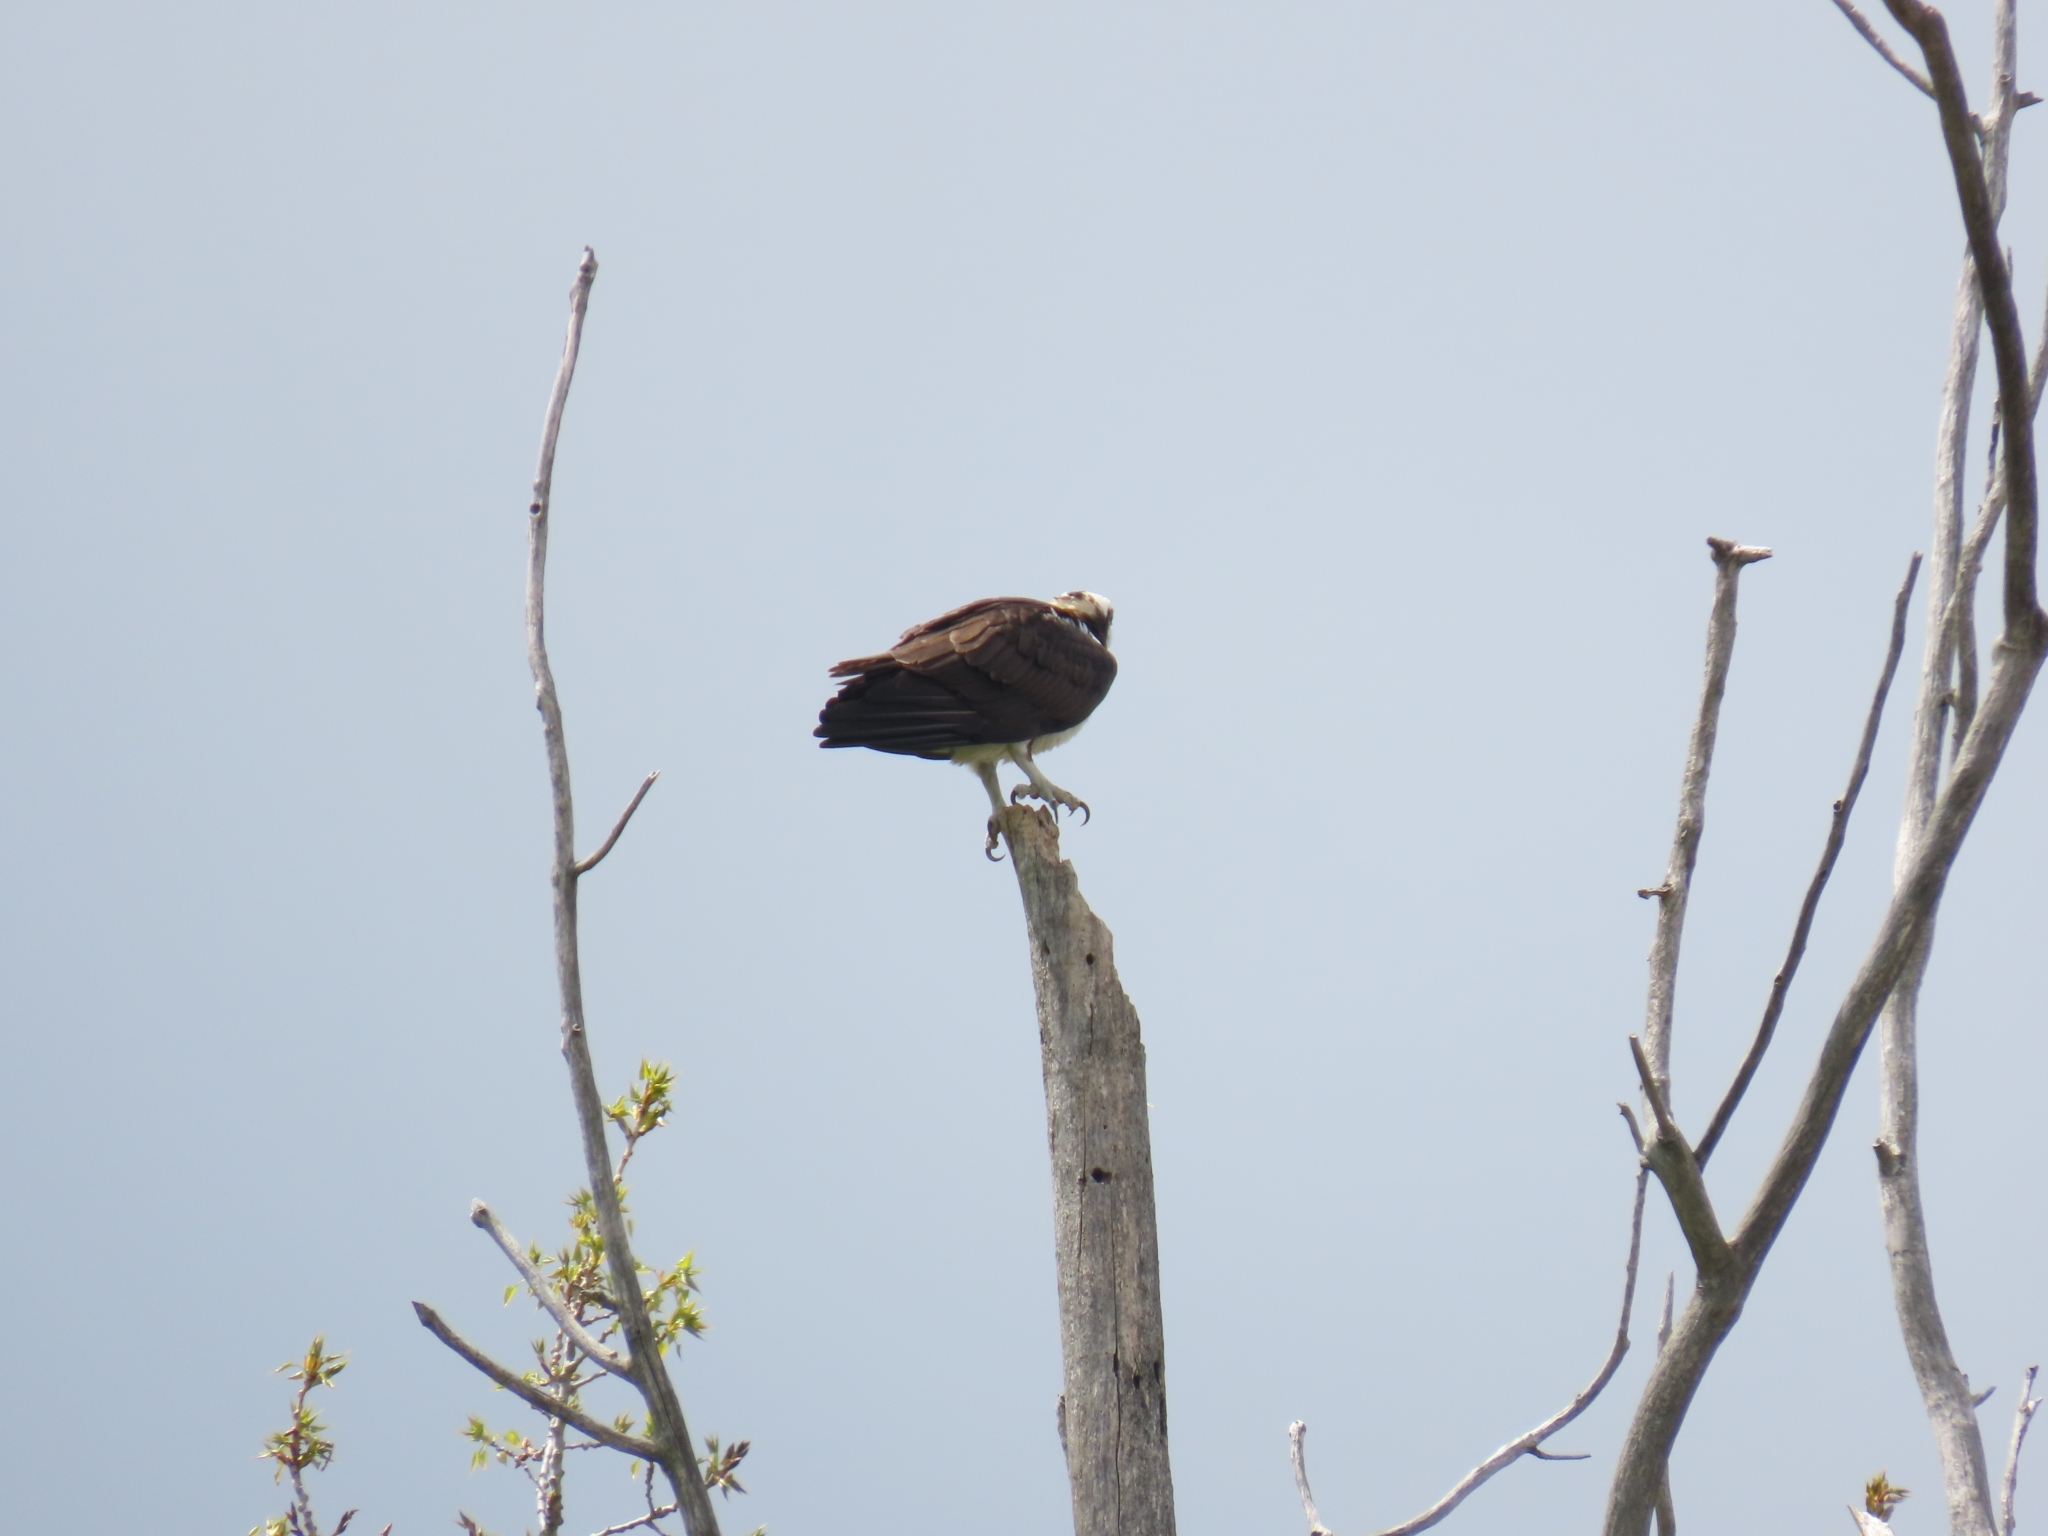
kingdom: Animalia
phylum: Chordata
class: Aves
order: Accipitriformes
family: Pandionidae
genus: Pandion
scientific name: Pandion haliaetus
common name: Osprey
